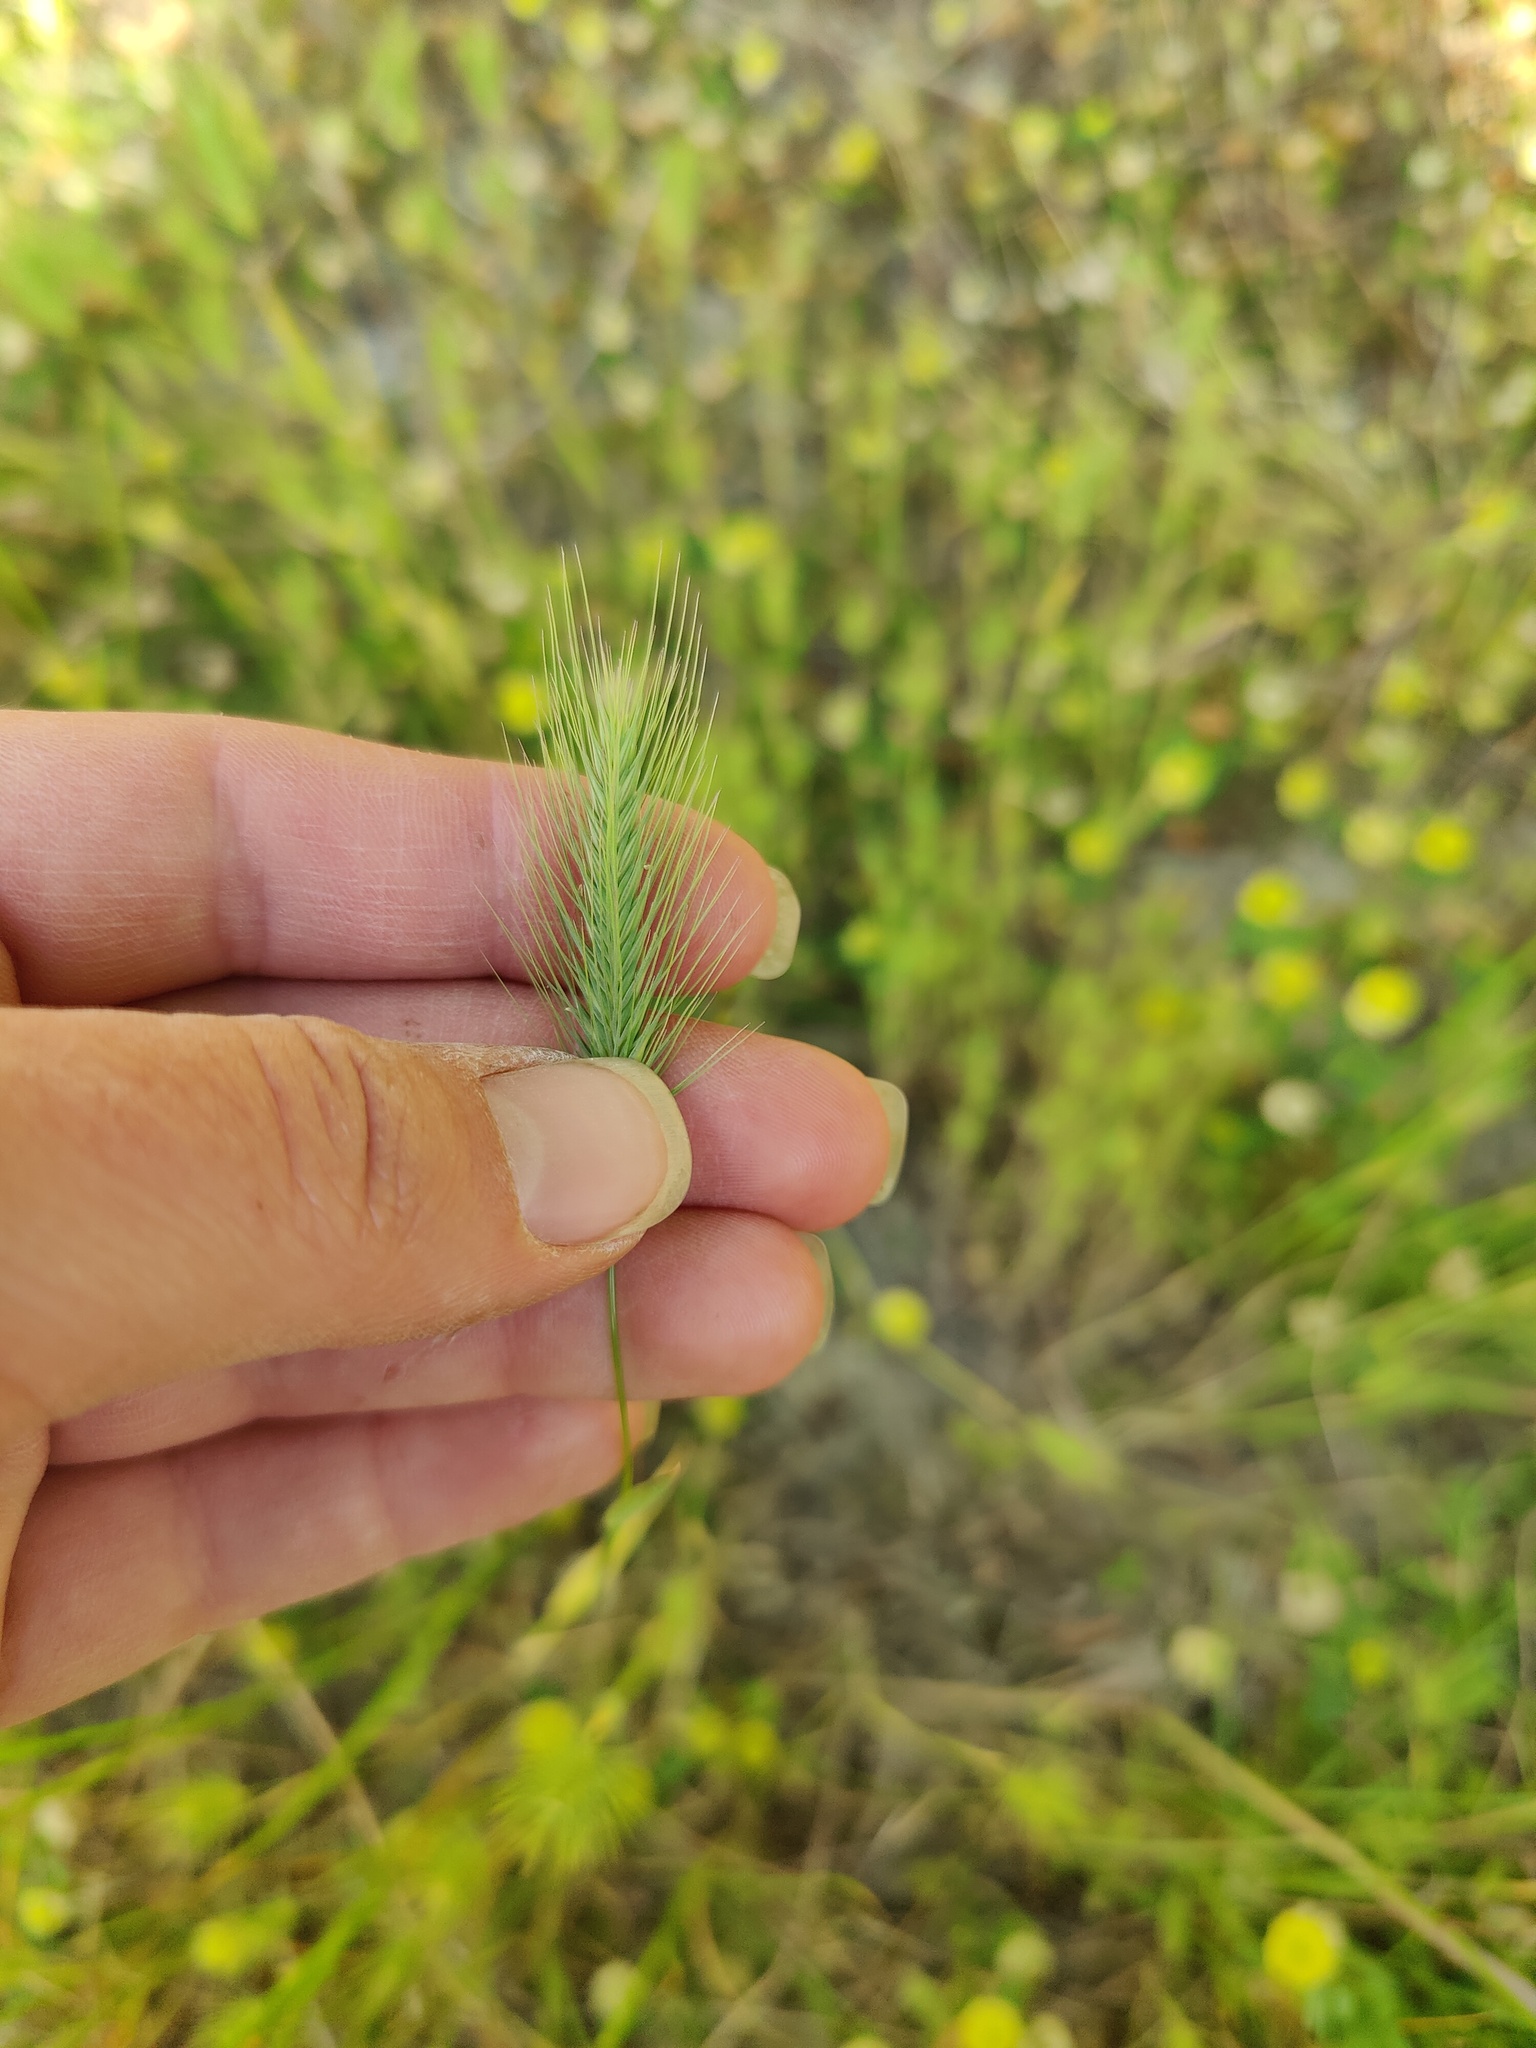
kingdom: Plantae
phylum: Tracheophyta
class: Liliopsida
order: Poales
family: Poaceae
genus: Hordeum
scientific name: Hordeum murinum
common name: Wall barley
